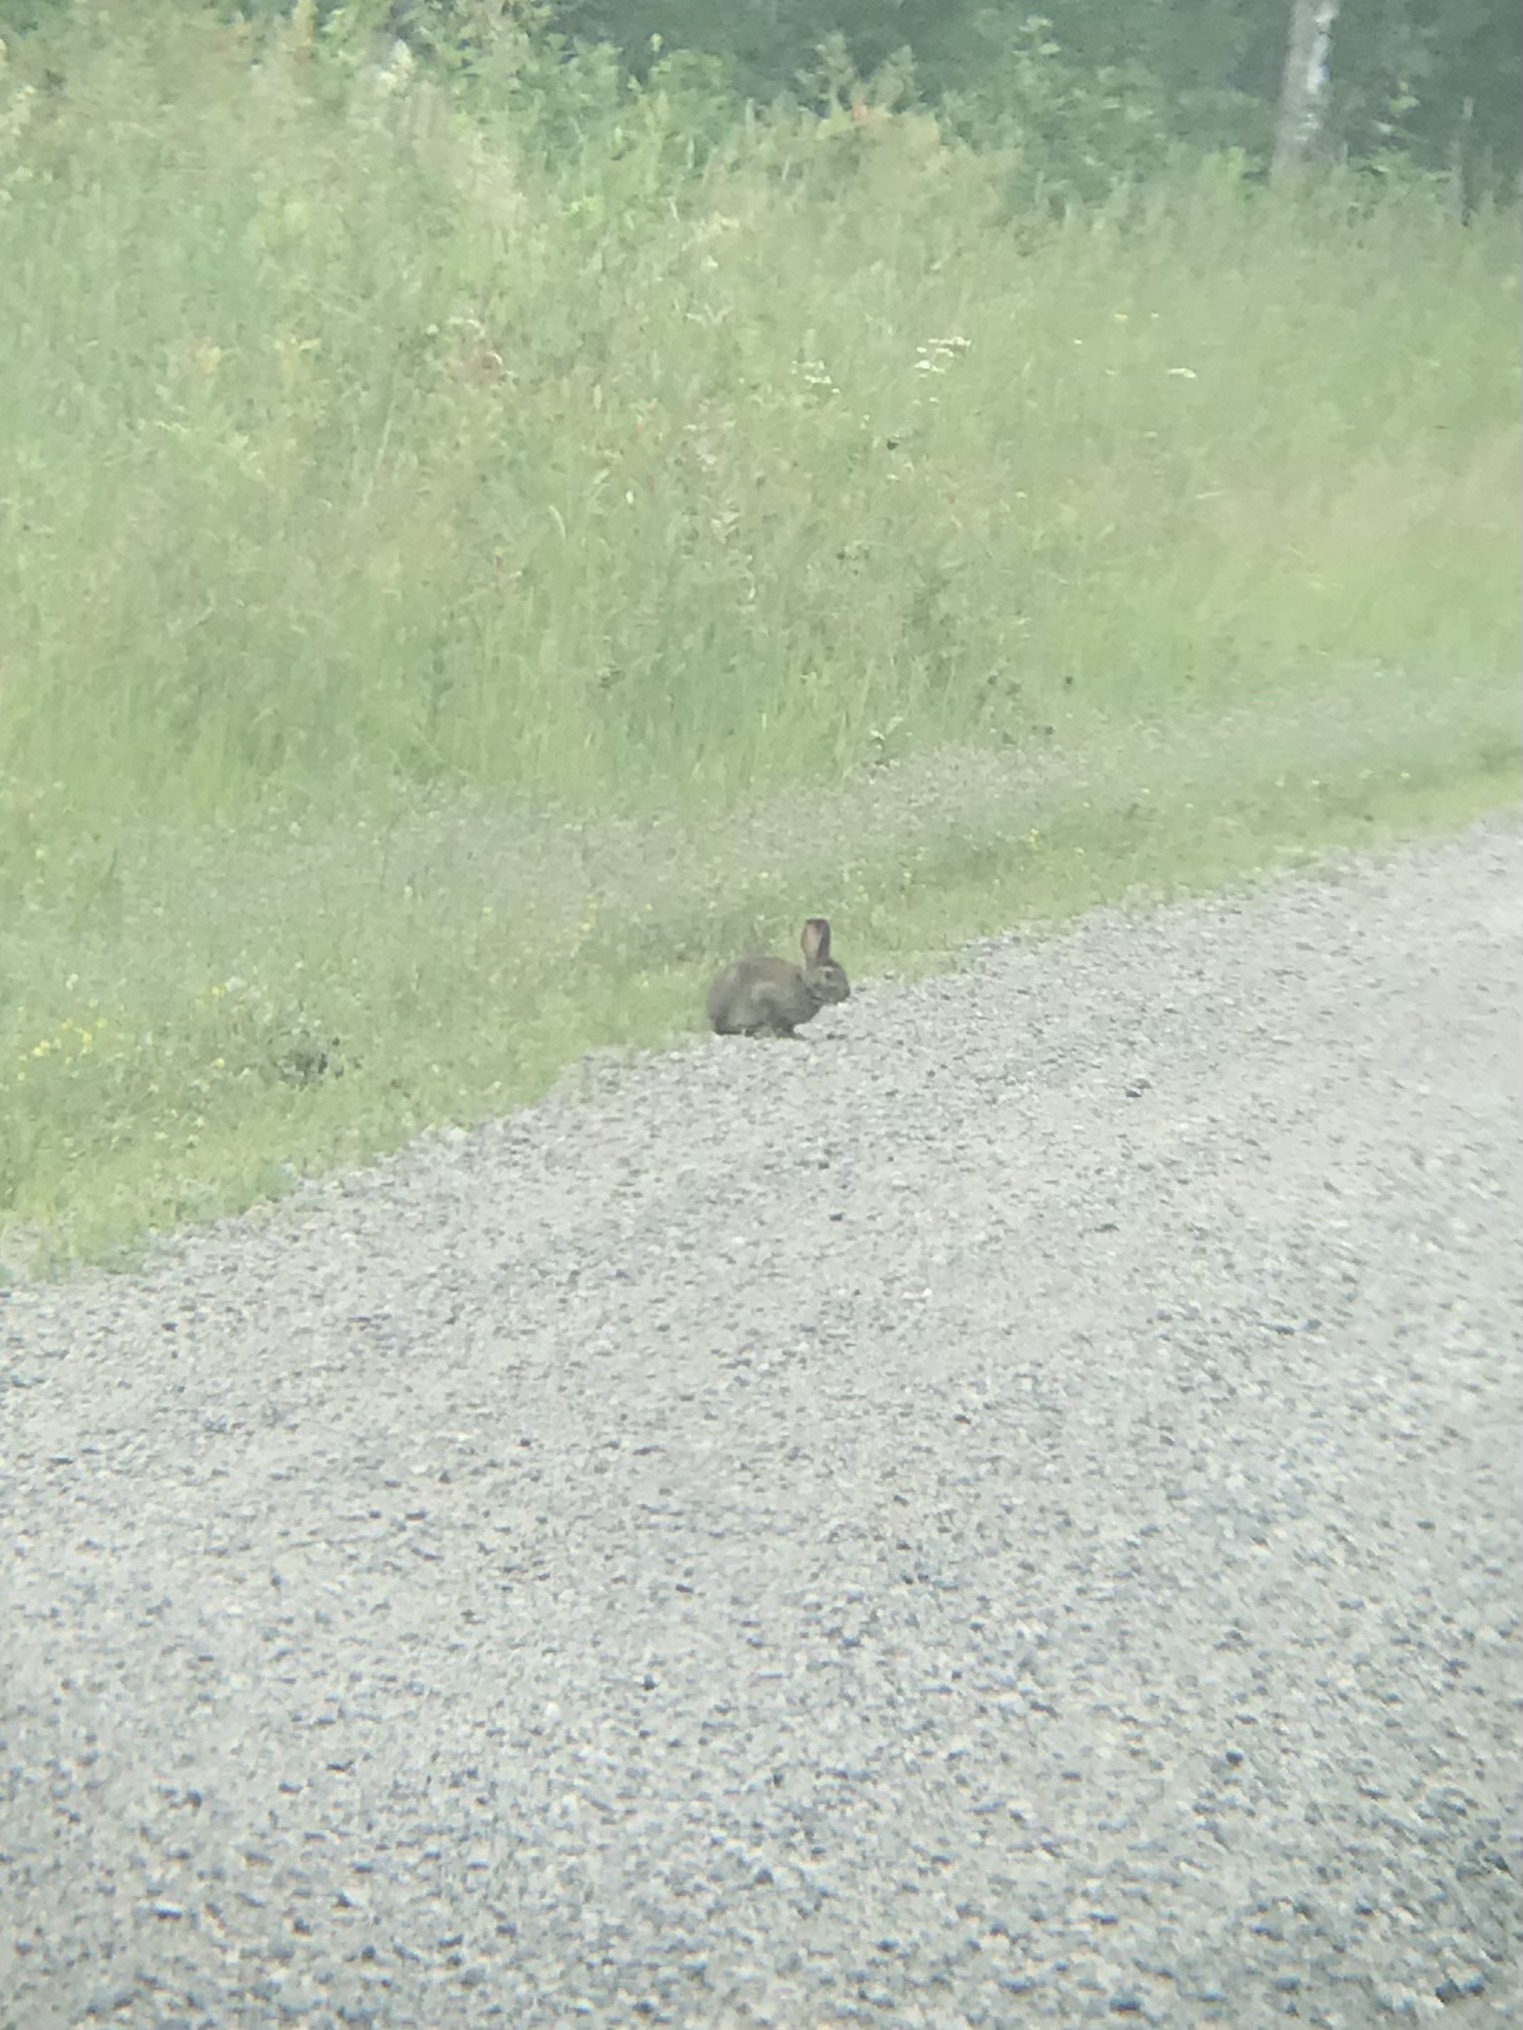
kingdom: Animalia
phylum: Chordata
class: Mammalia
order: Lagomorpha
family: Leporidae
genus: Lepus
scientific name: Lepus americanus
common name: Snowshoe hare
